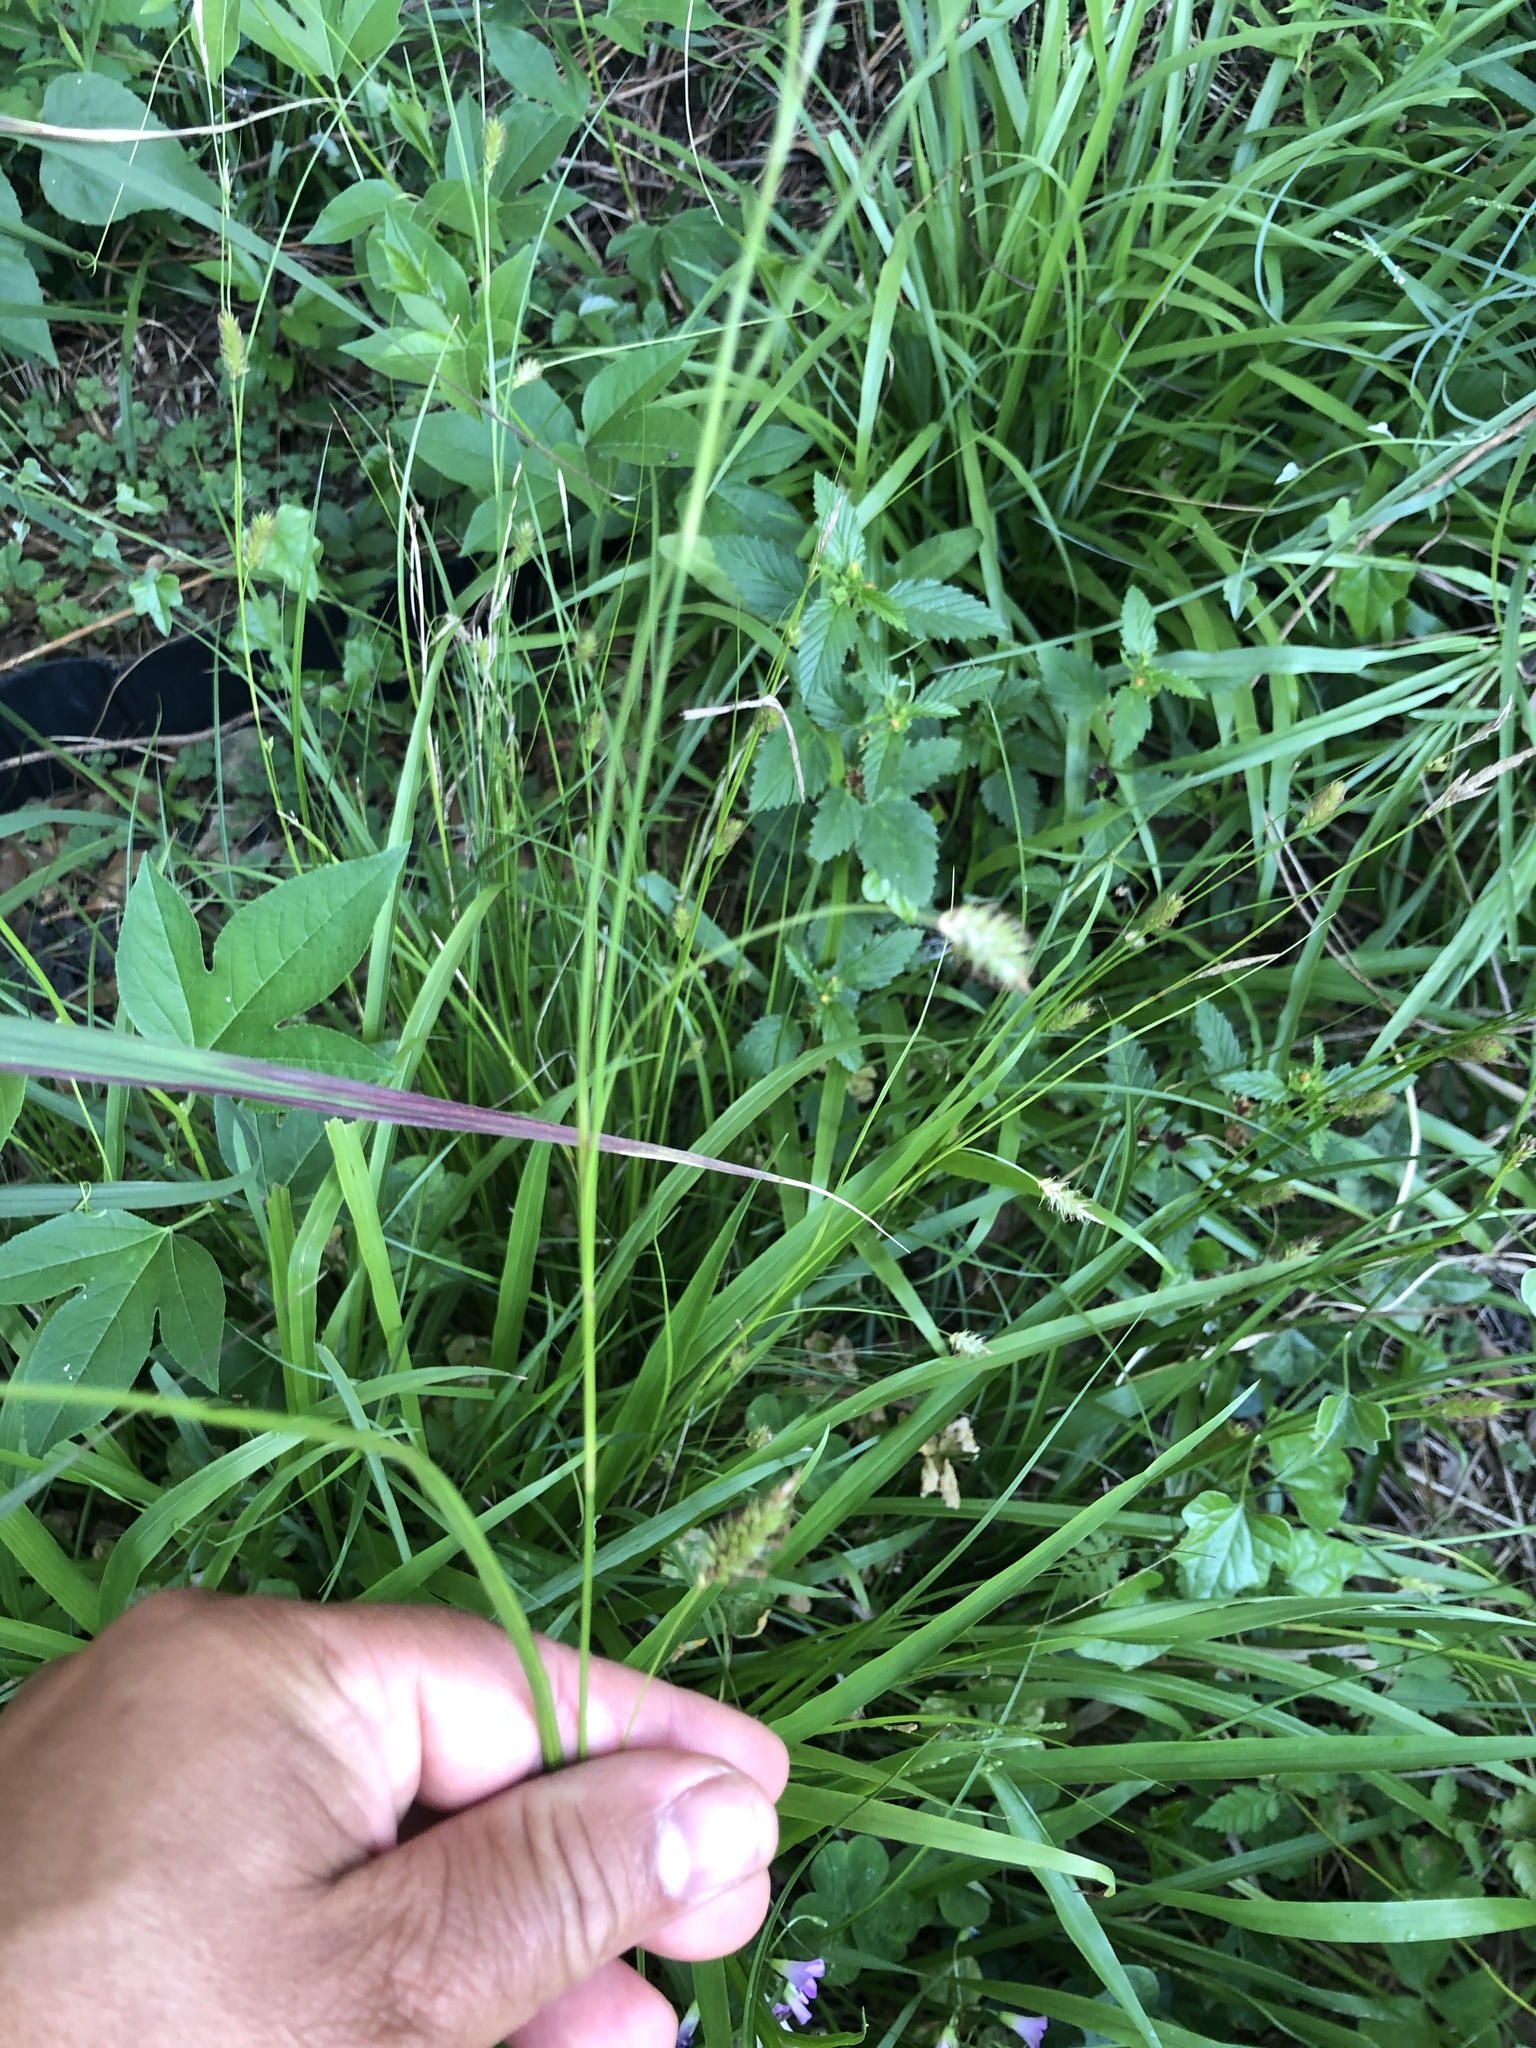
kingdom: Plantae
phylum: Tracheophyta
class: Liliopsida
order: Poales
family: Cyperaceae
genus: Carex
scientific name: Carex cherokeensis
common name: Cherokee sedge
